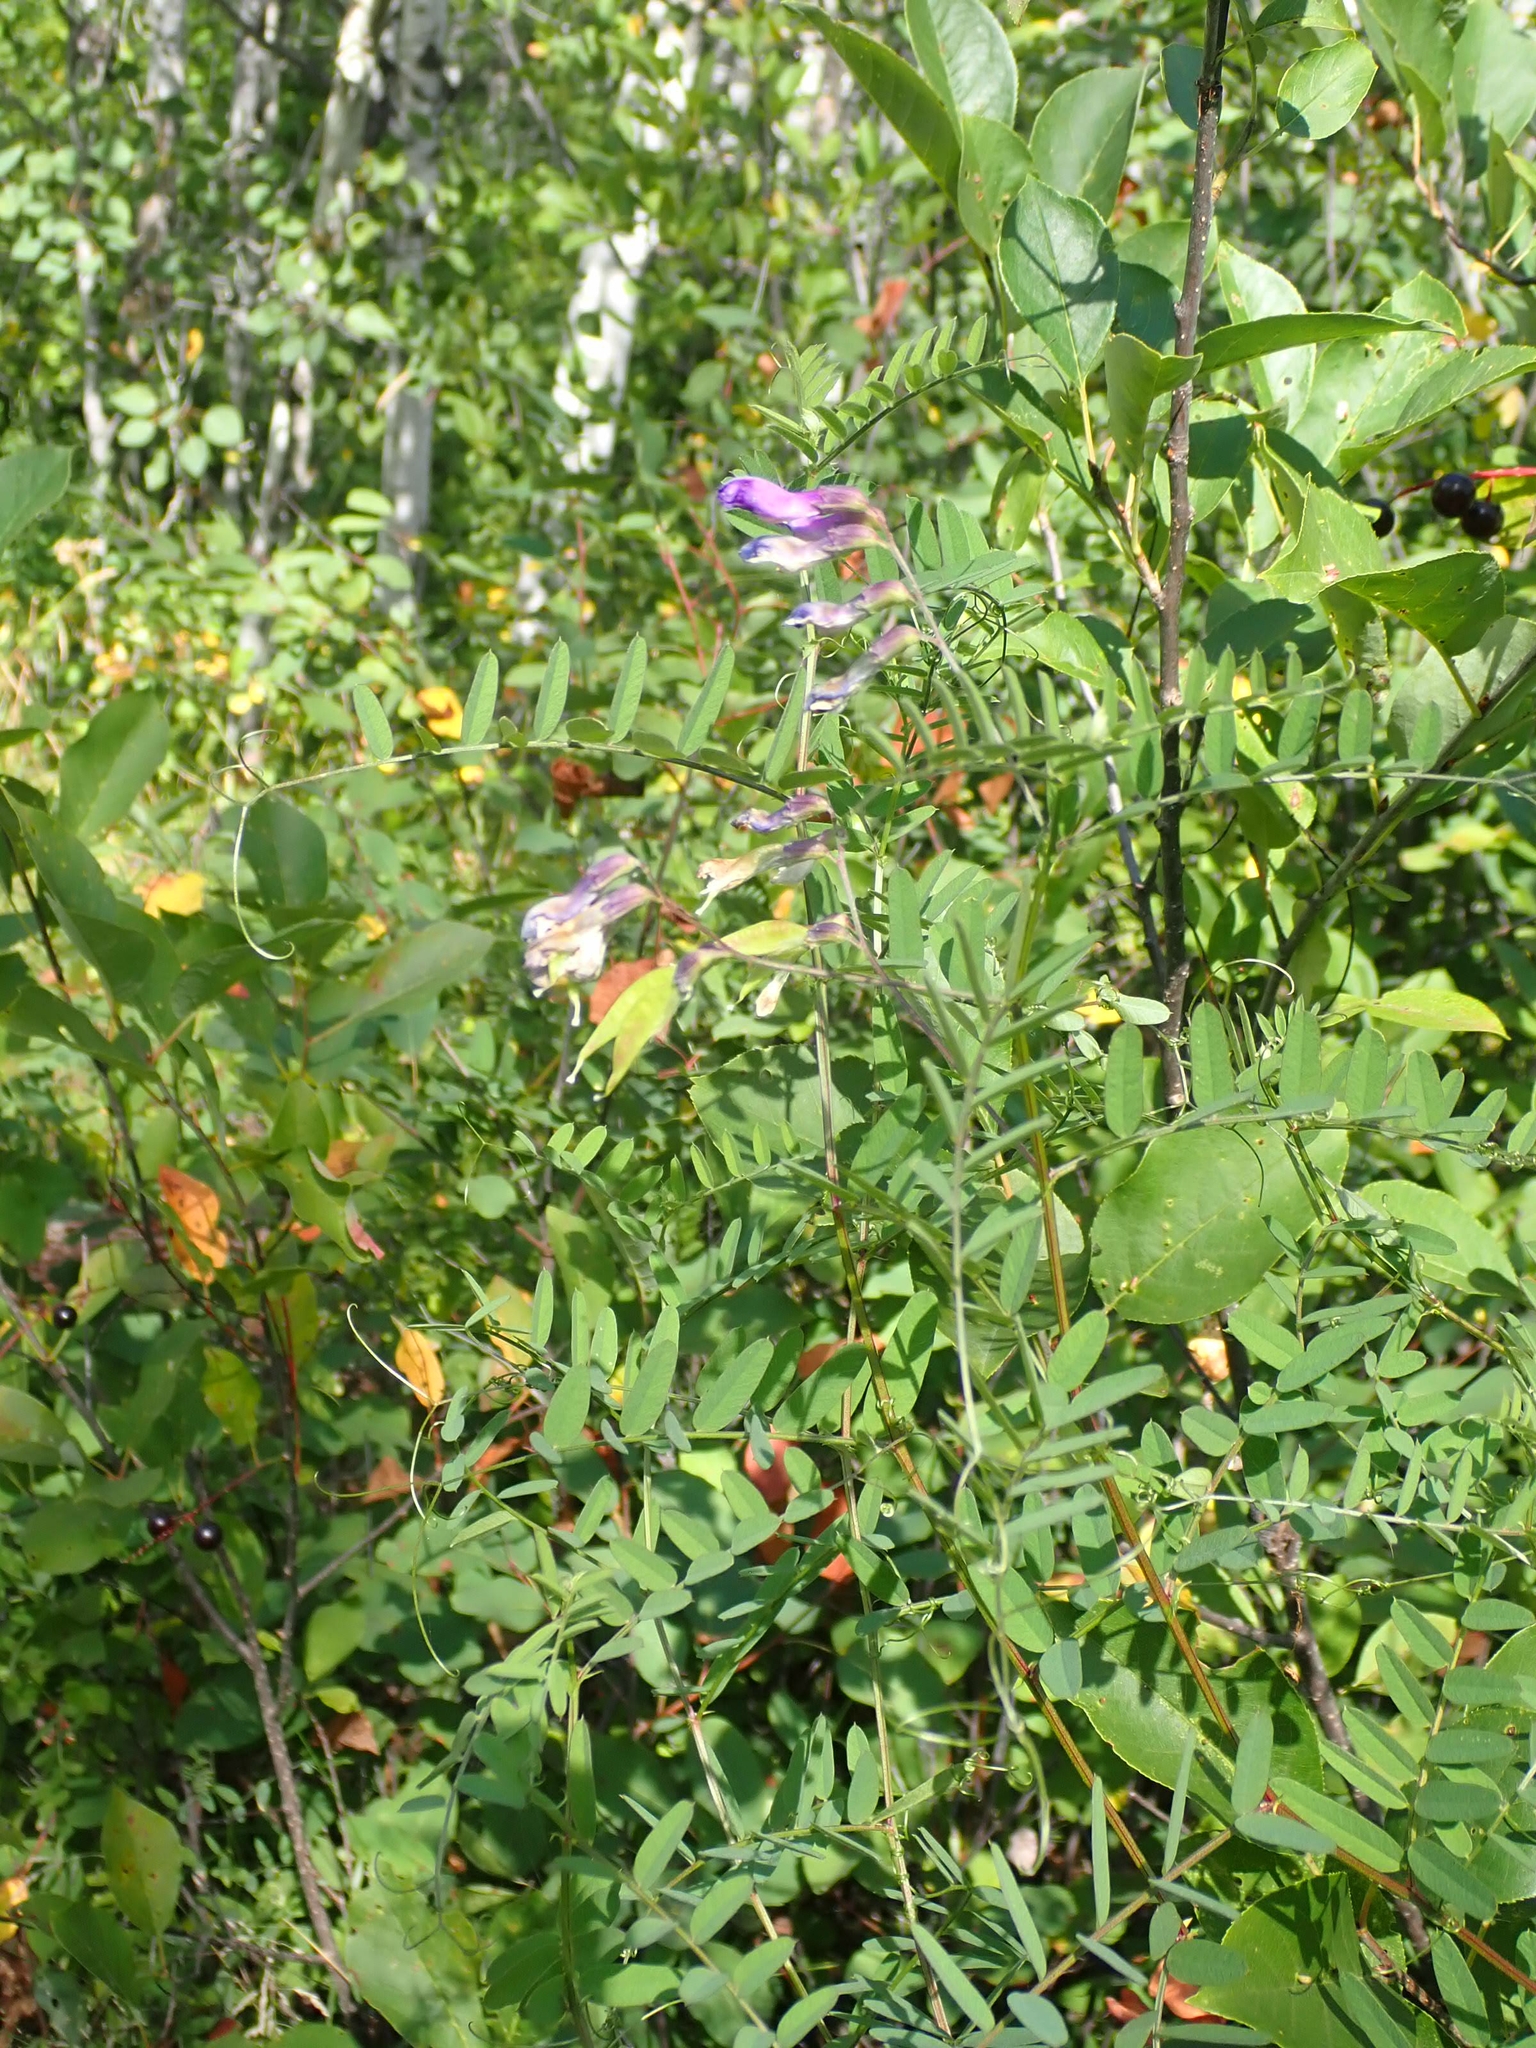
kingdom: Plantae
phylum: Tracheophyta
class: Magnoliopsida
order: Fabales
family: Fabaceae
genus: Vicia
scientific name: Vicia americana
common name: American vetch
